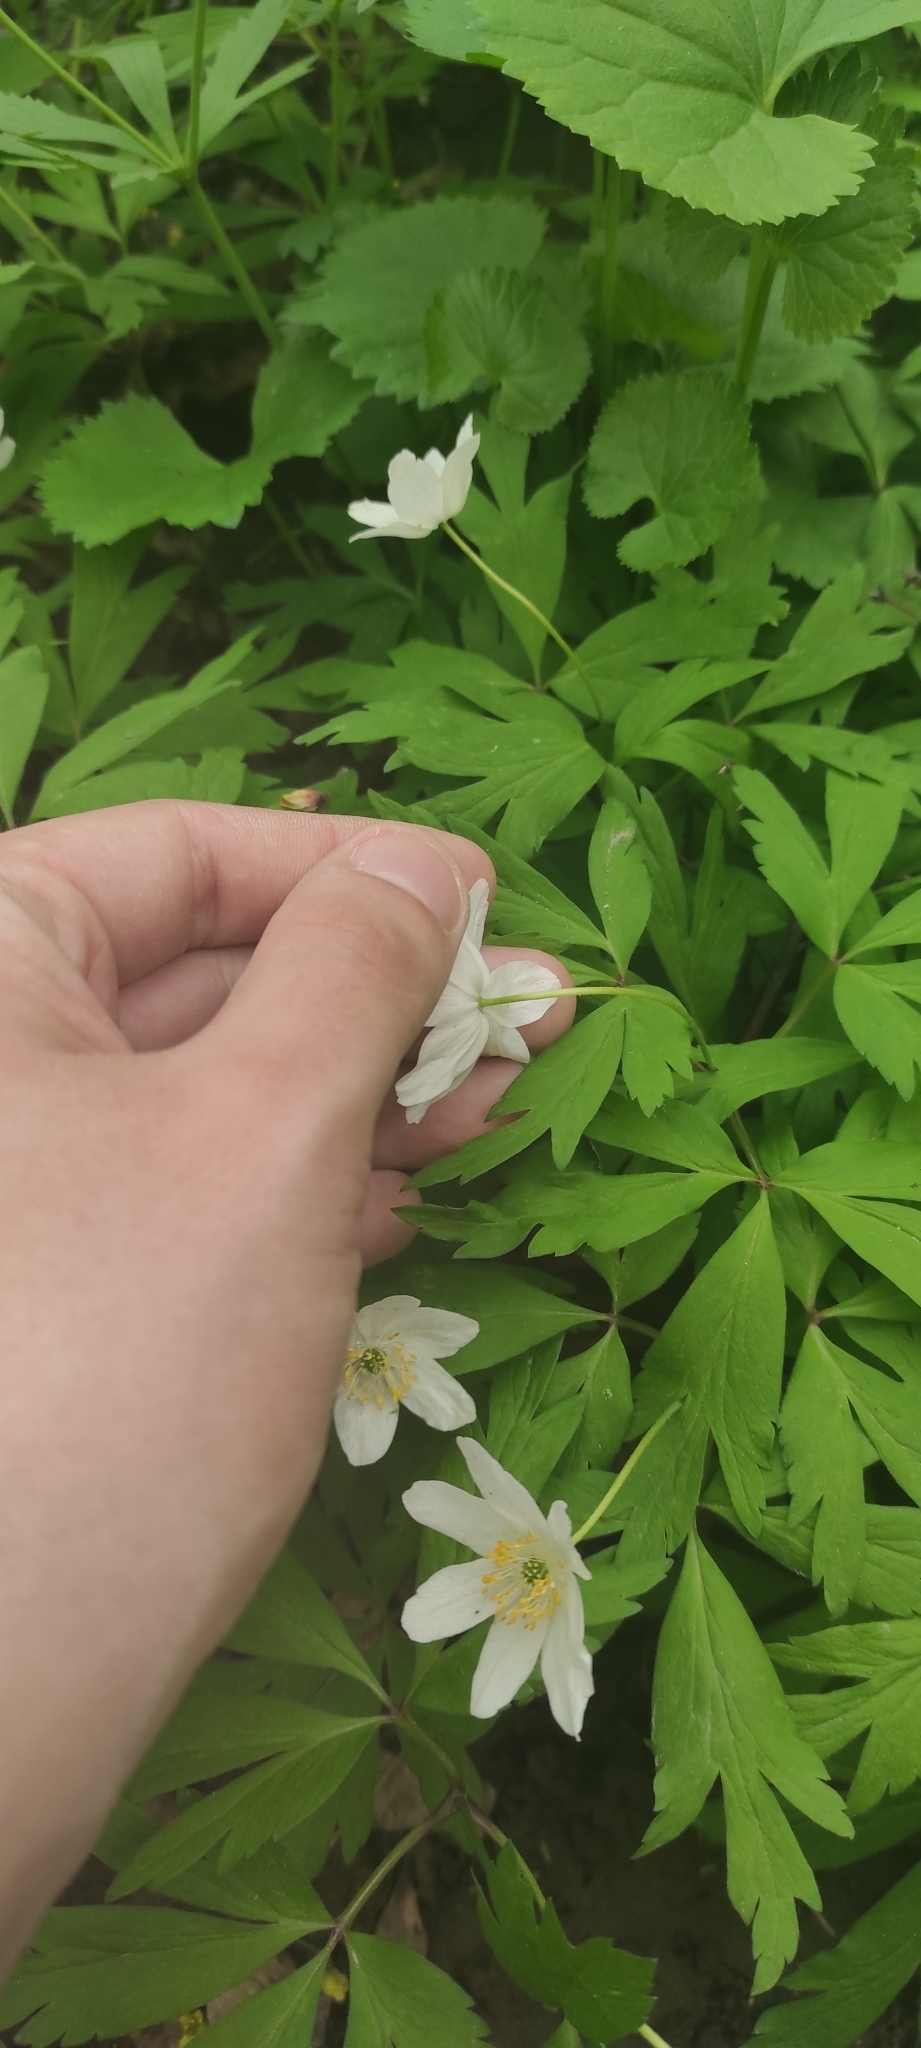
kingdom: Plantae
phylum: Tracheophyta
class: Magnoliopsida
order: Ranunculales
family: Ranunculaceae
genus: Anemone
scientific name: Anemone nemorosa
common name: Wood anemone
